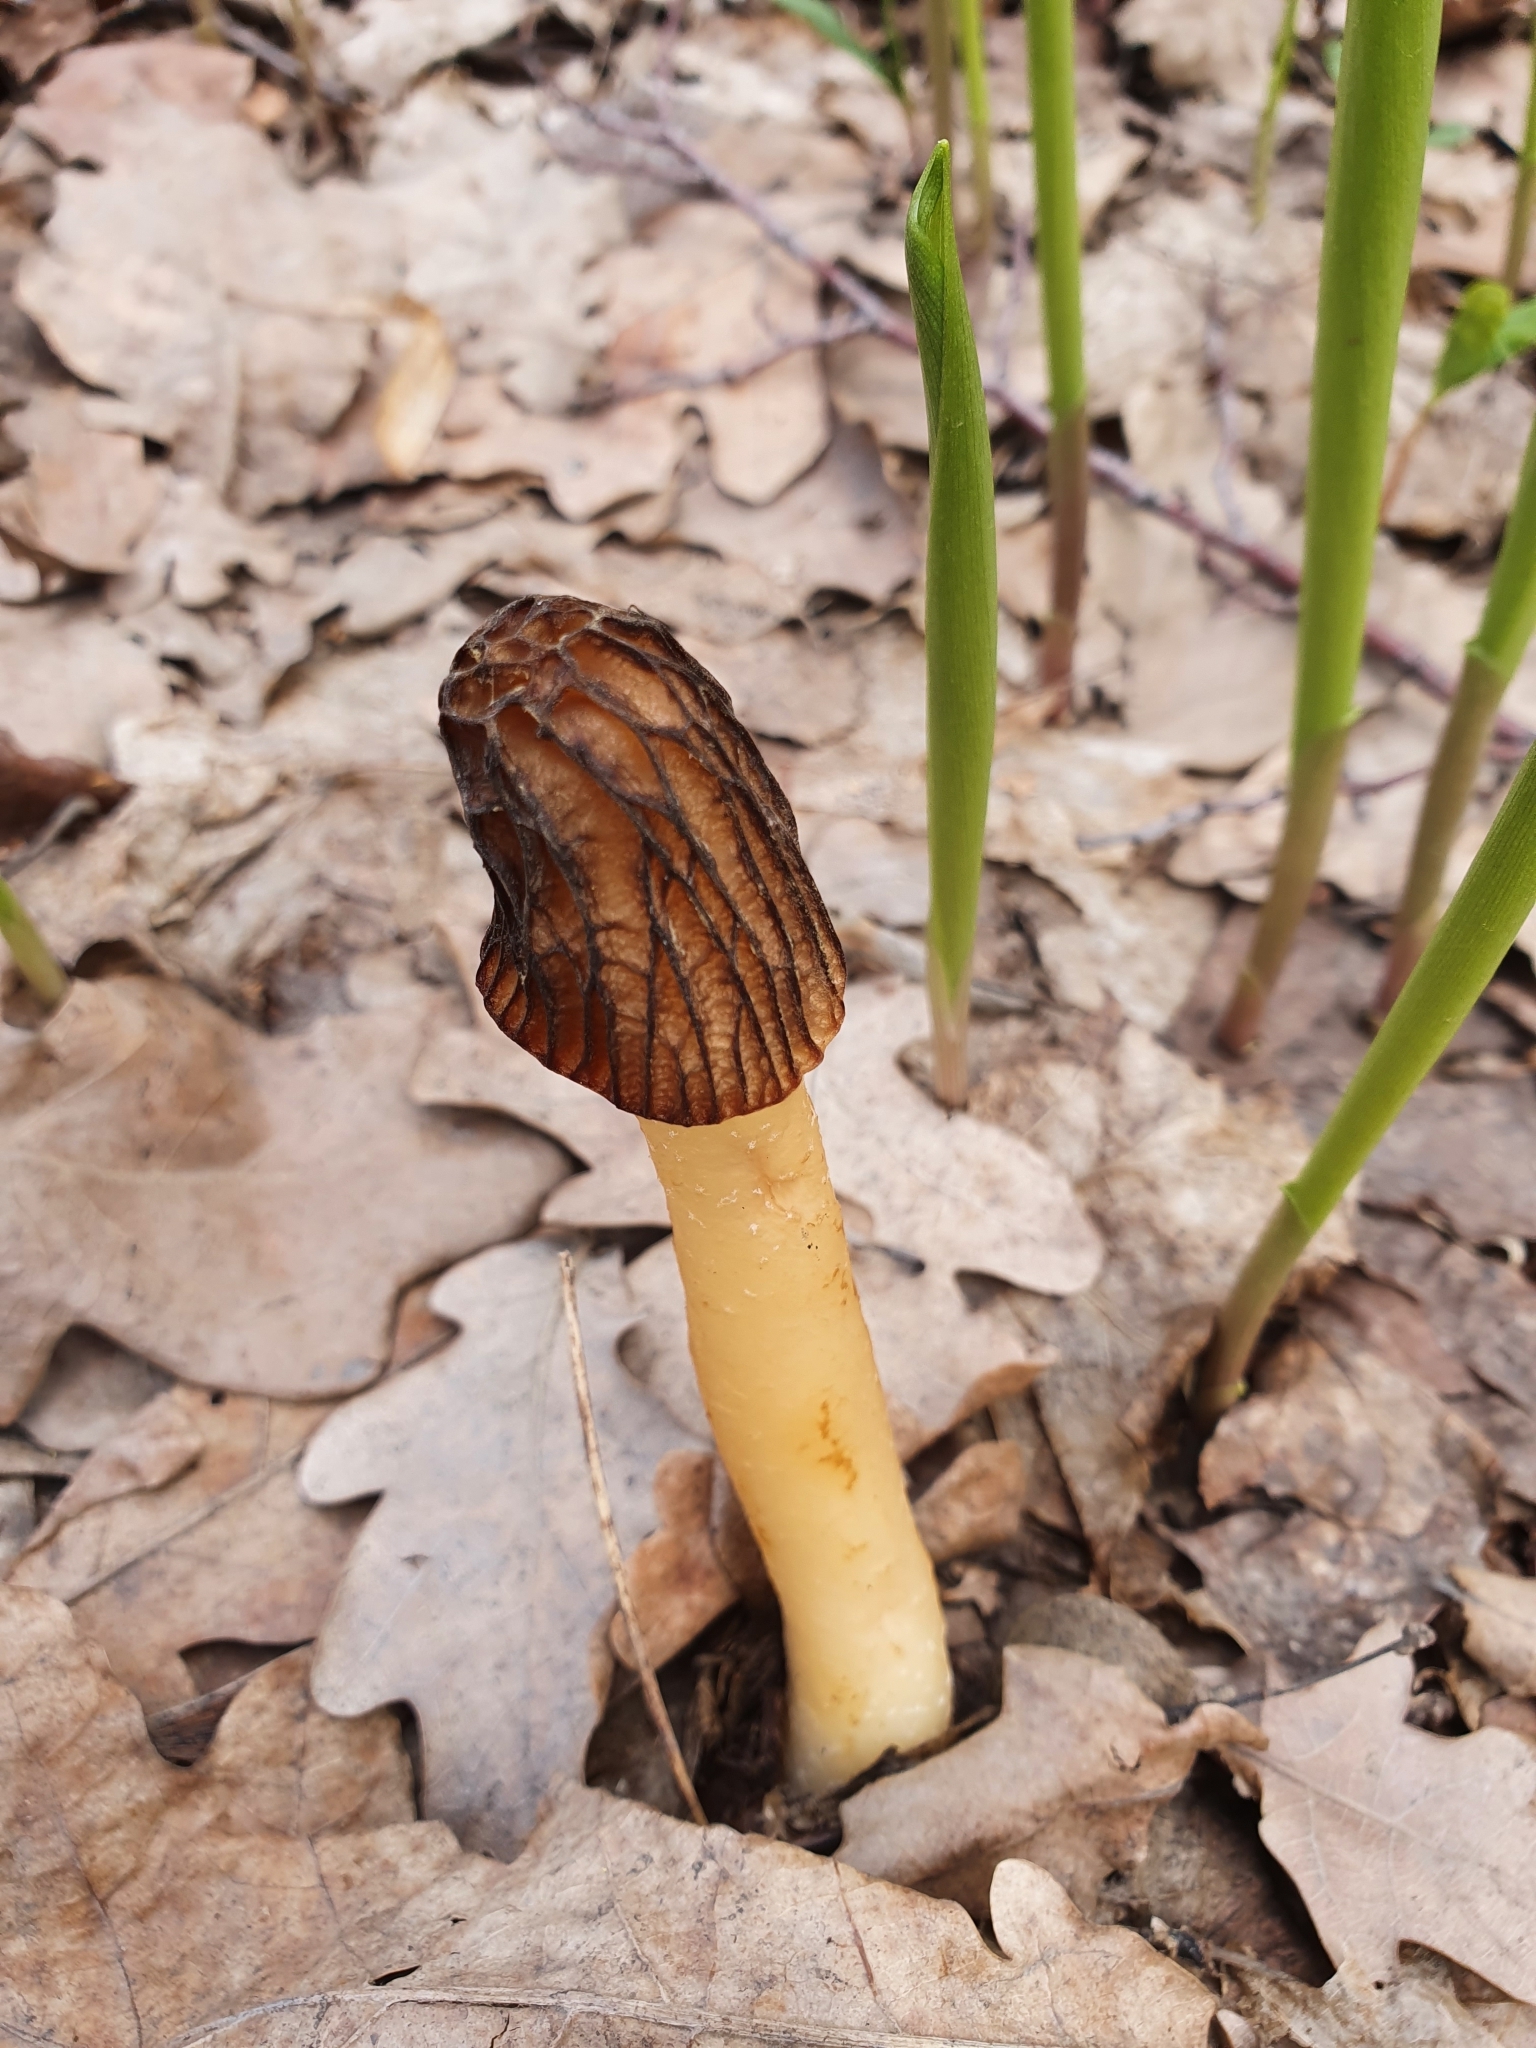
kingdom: Fungi
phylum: Ascomycota
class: Pezizomycetes
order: Pezizales
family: Morchellaceae
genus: Verpa
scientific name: Verpa bohemica
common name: Wrinkled thimble morel
